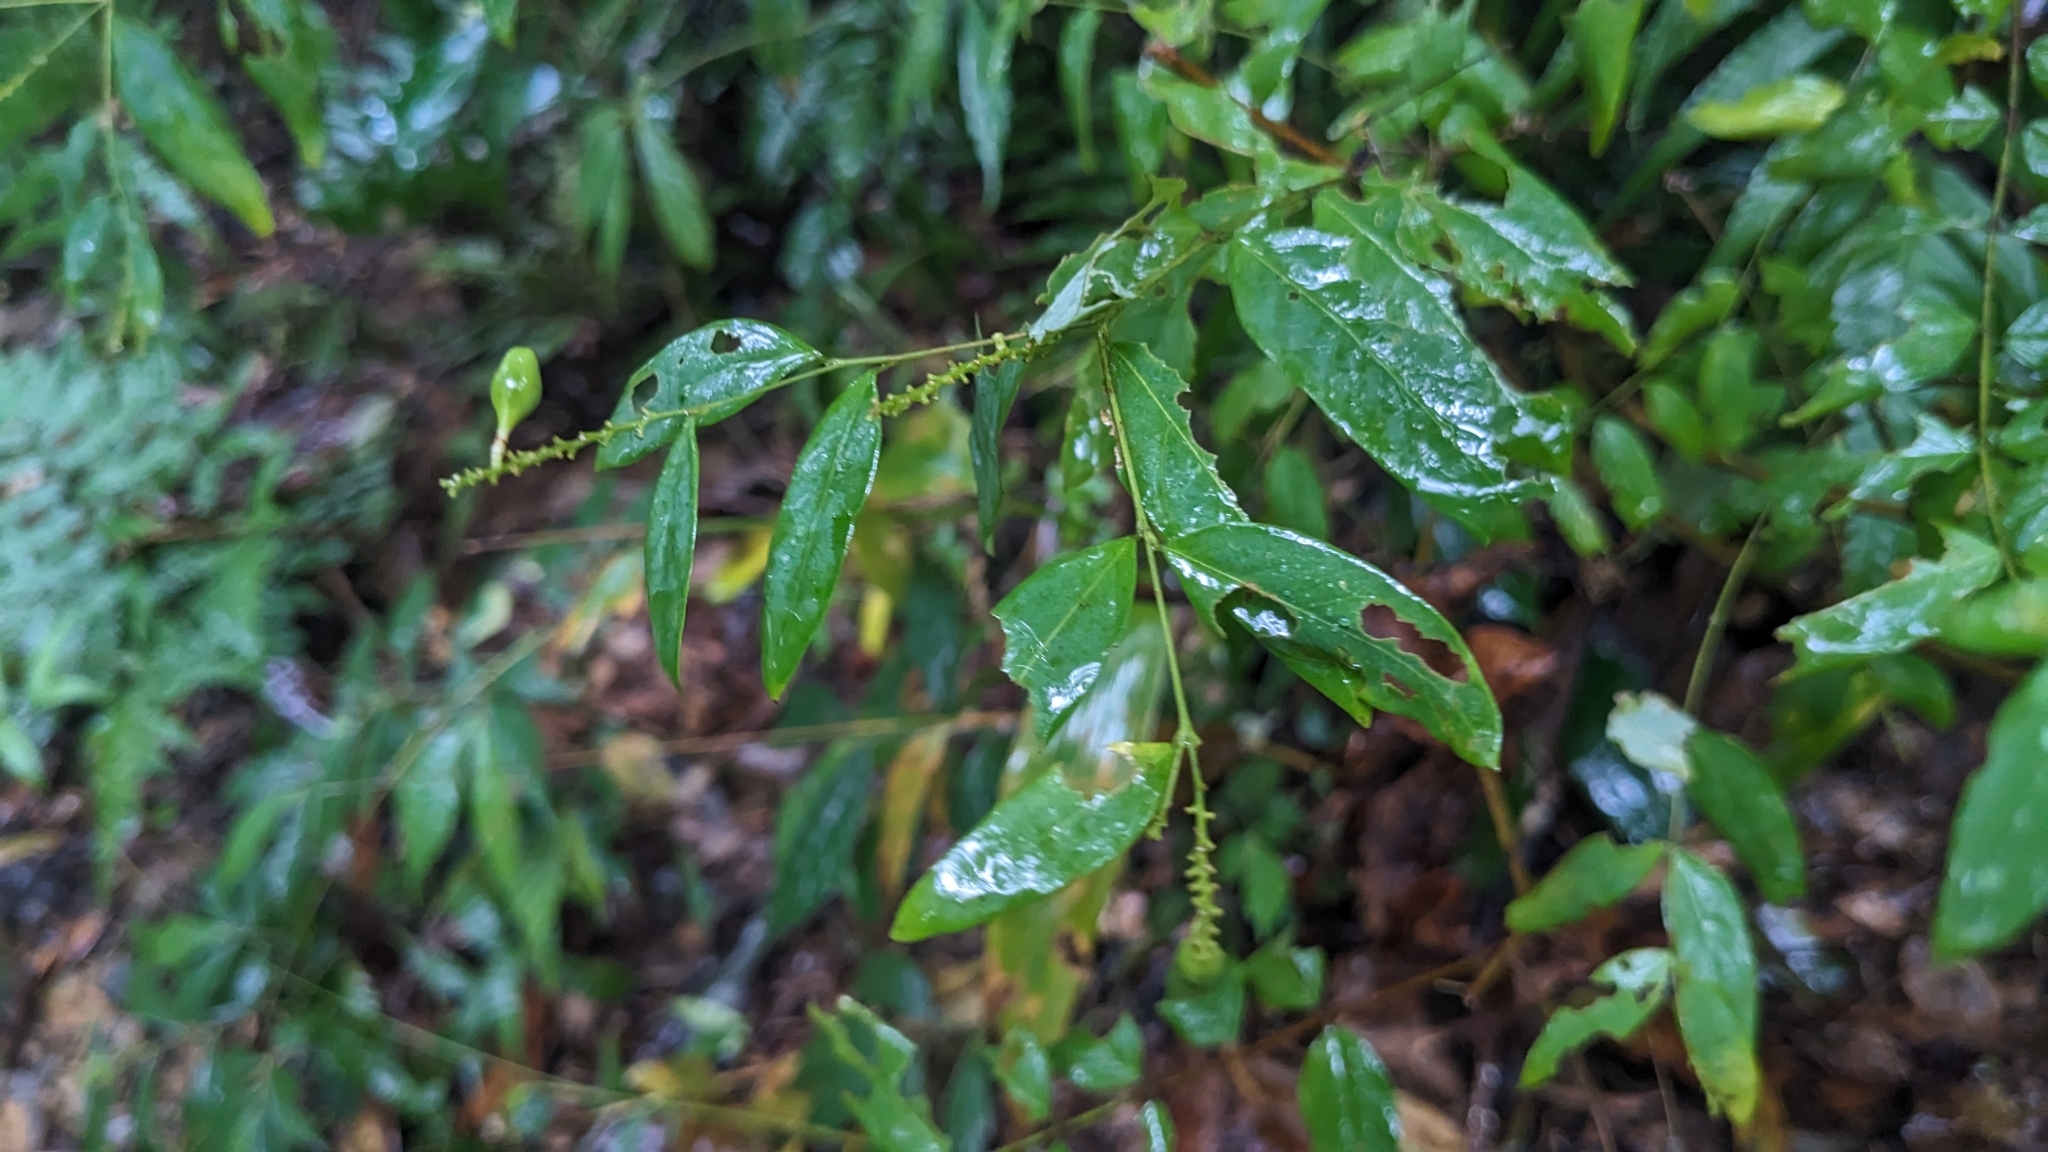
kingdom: Plantae
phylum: Tracheophyta
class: Magnoliopsida
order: Malvales
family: Thymelaeaceae
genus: Wikstroemia
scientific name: Wikstroemia mononectaria
